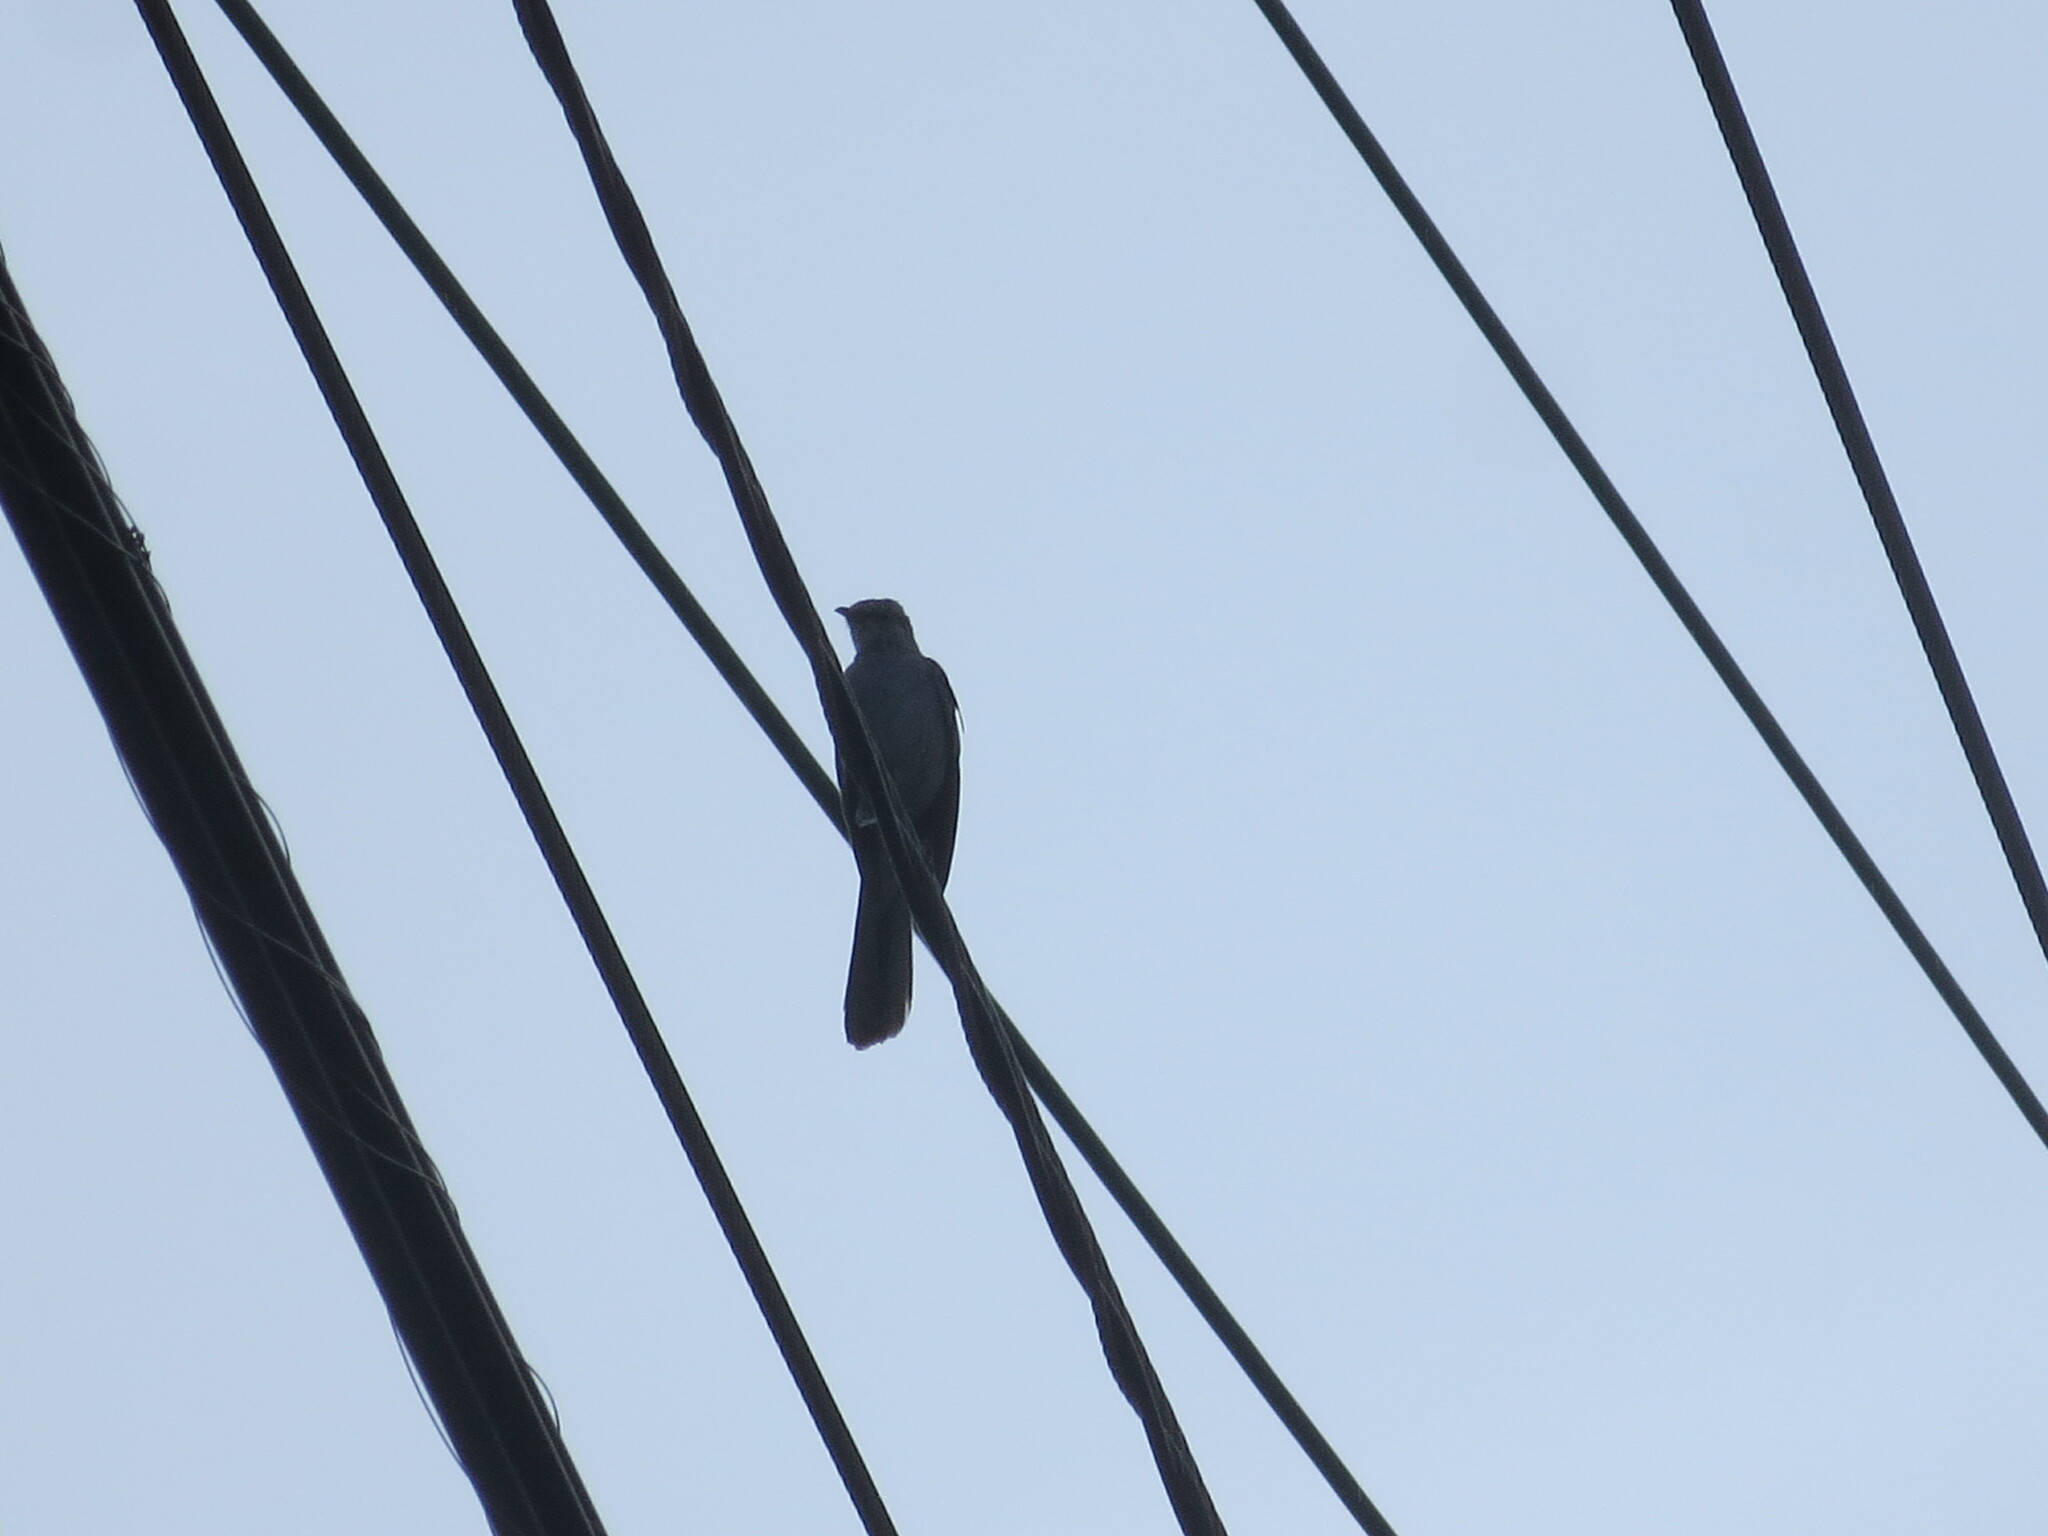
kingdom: Animalia
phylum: Chordata
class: Aves
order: Passeriformes
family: Mimidae
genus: Mimus
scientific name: Mimus polyglottos
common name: Northern mockingbird
